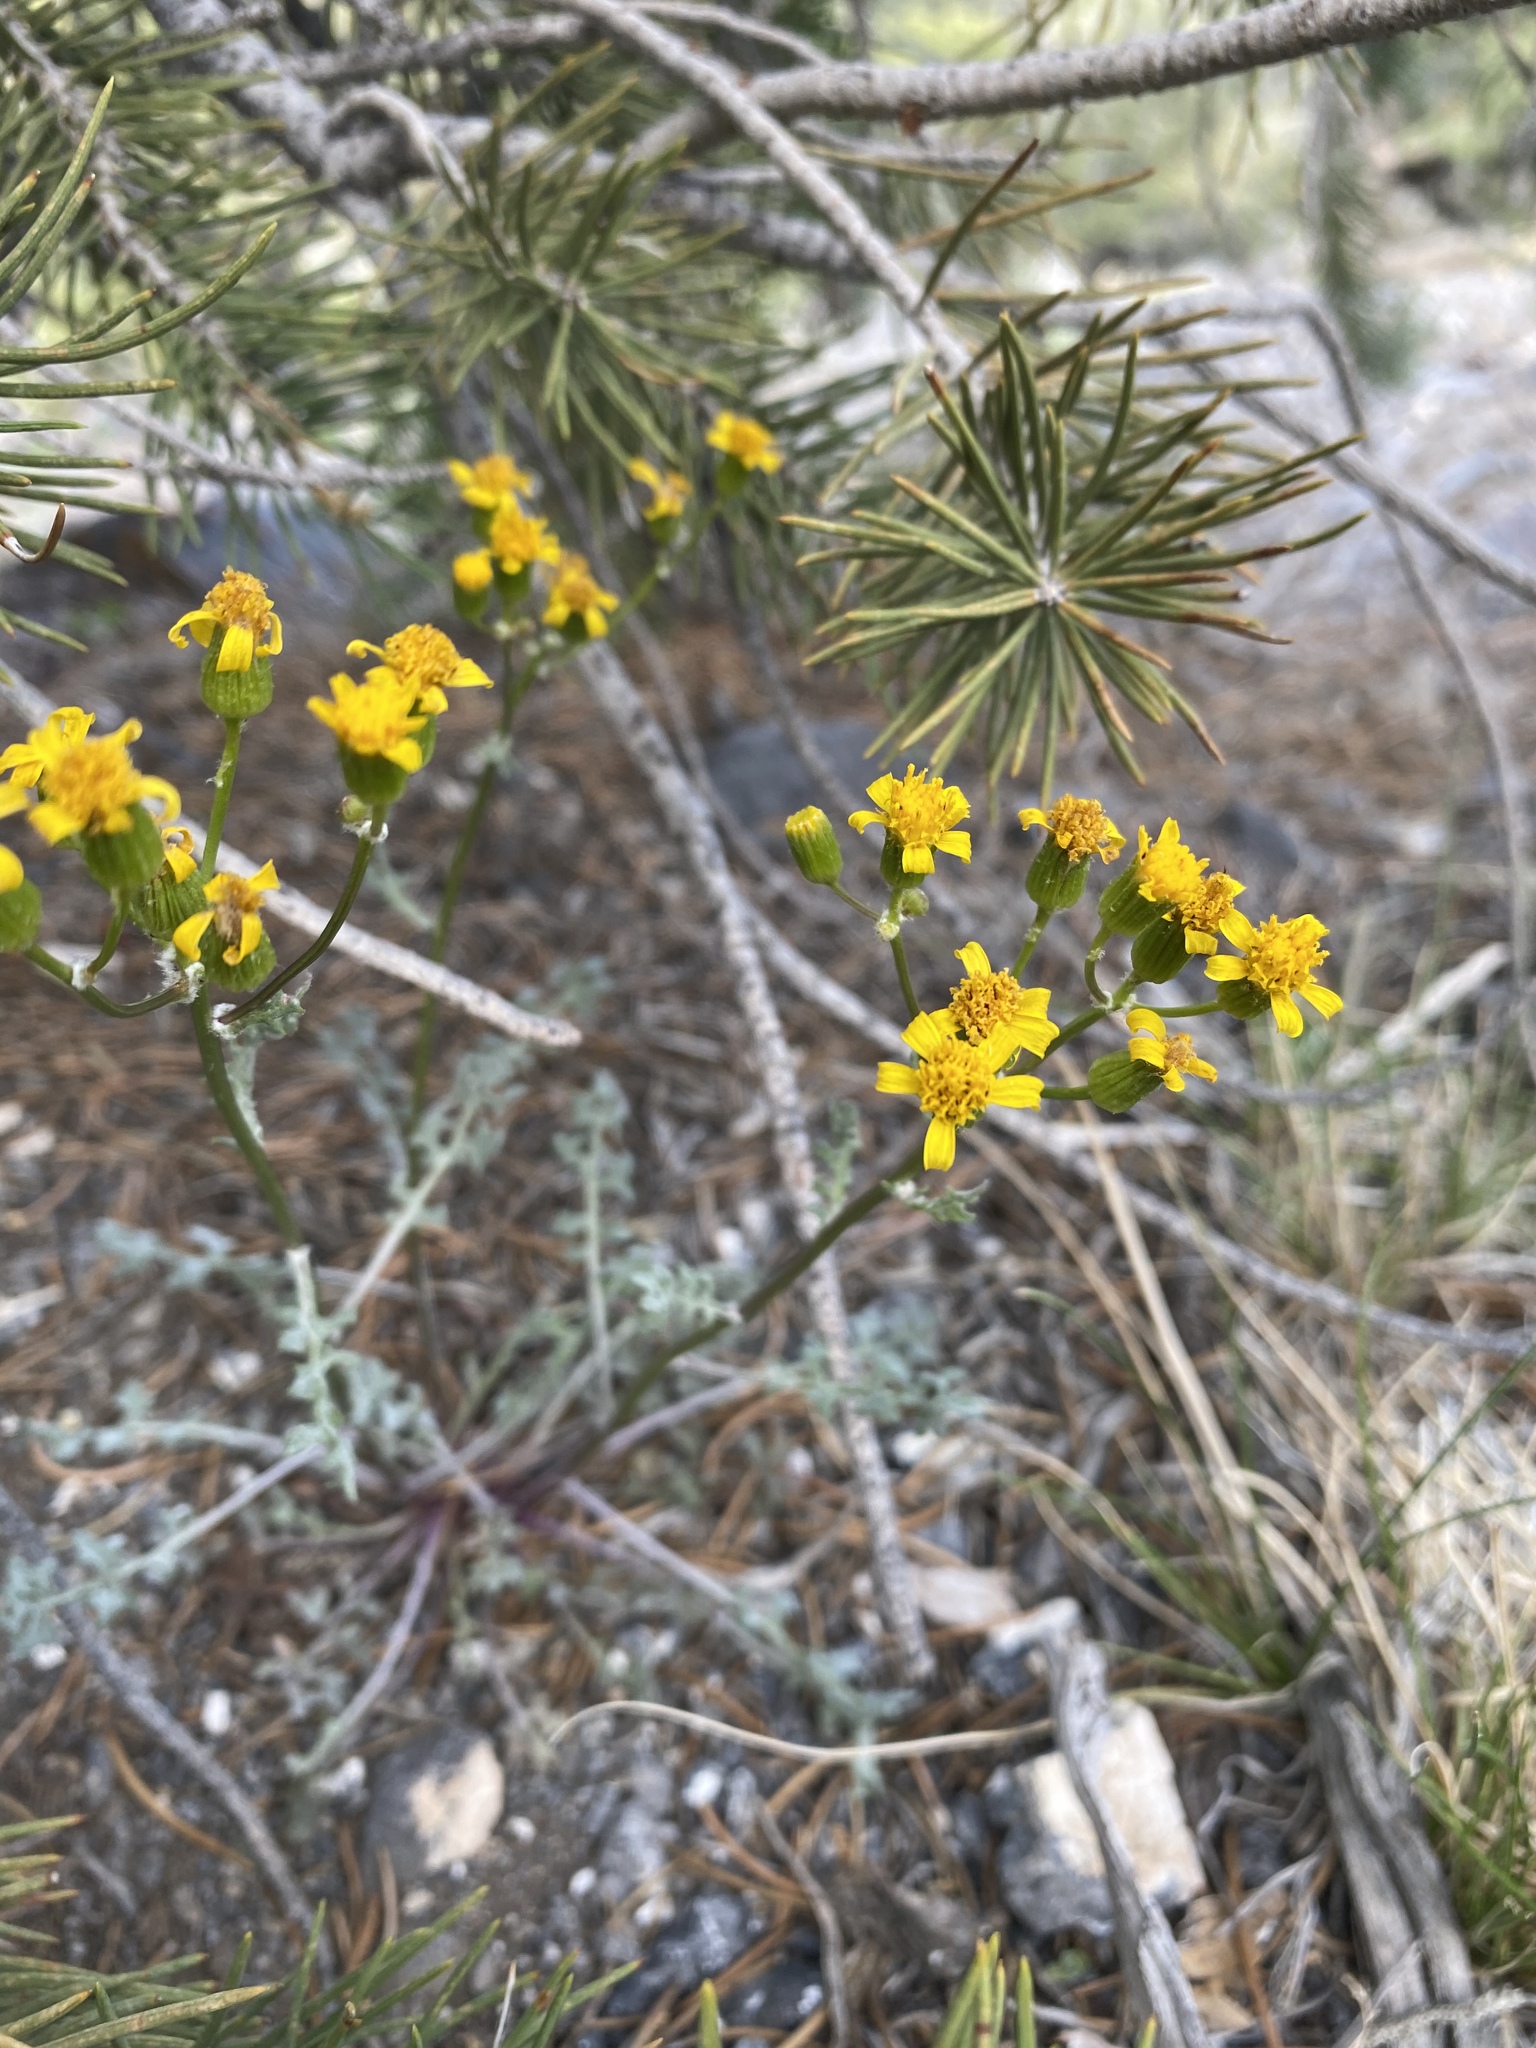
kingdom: Plantae
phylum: Tracheophyta
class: Magnoliopsida
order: Asterales
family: Asteraceae
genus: Packera
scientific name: Packera multilobata
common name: Lobe-leaf groundsel
